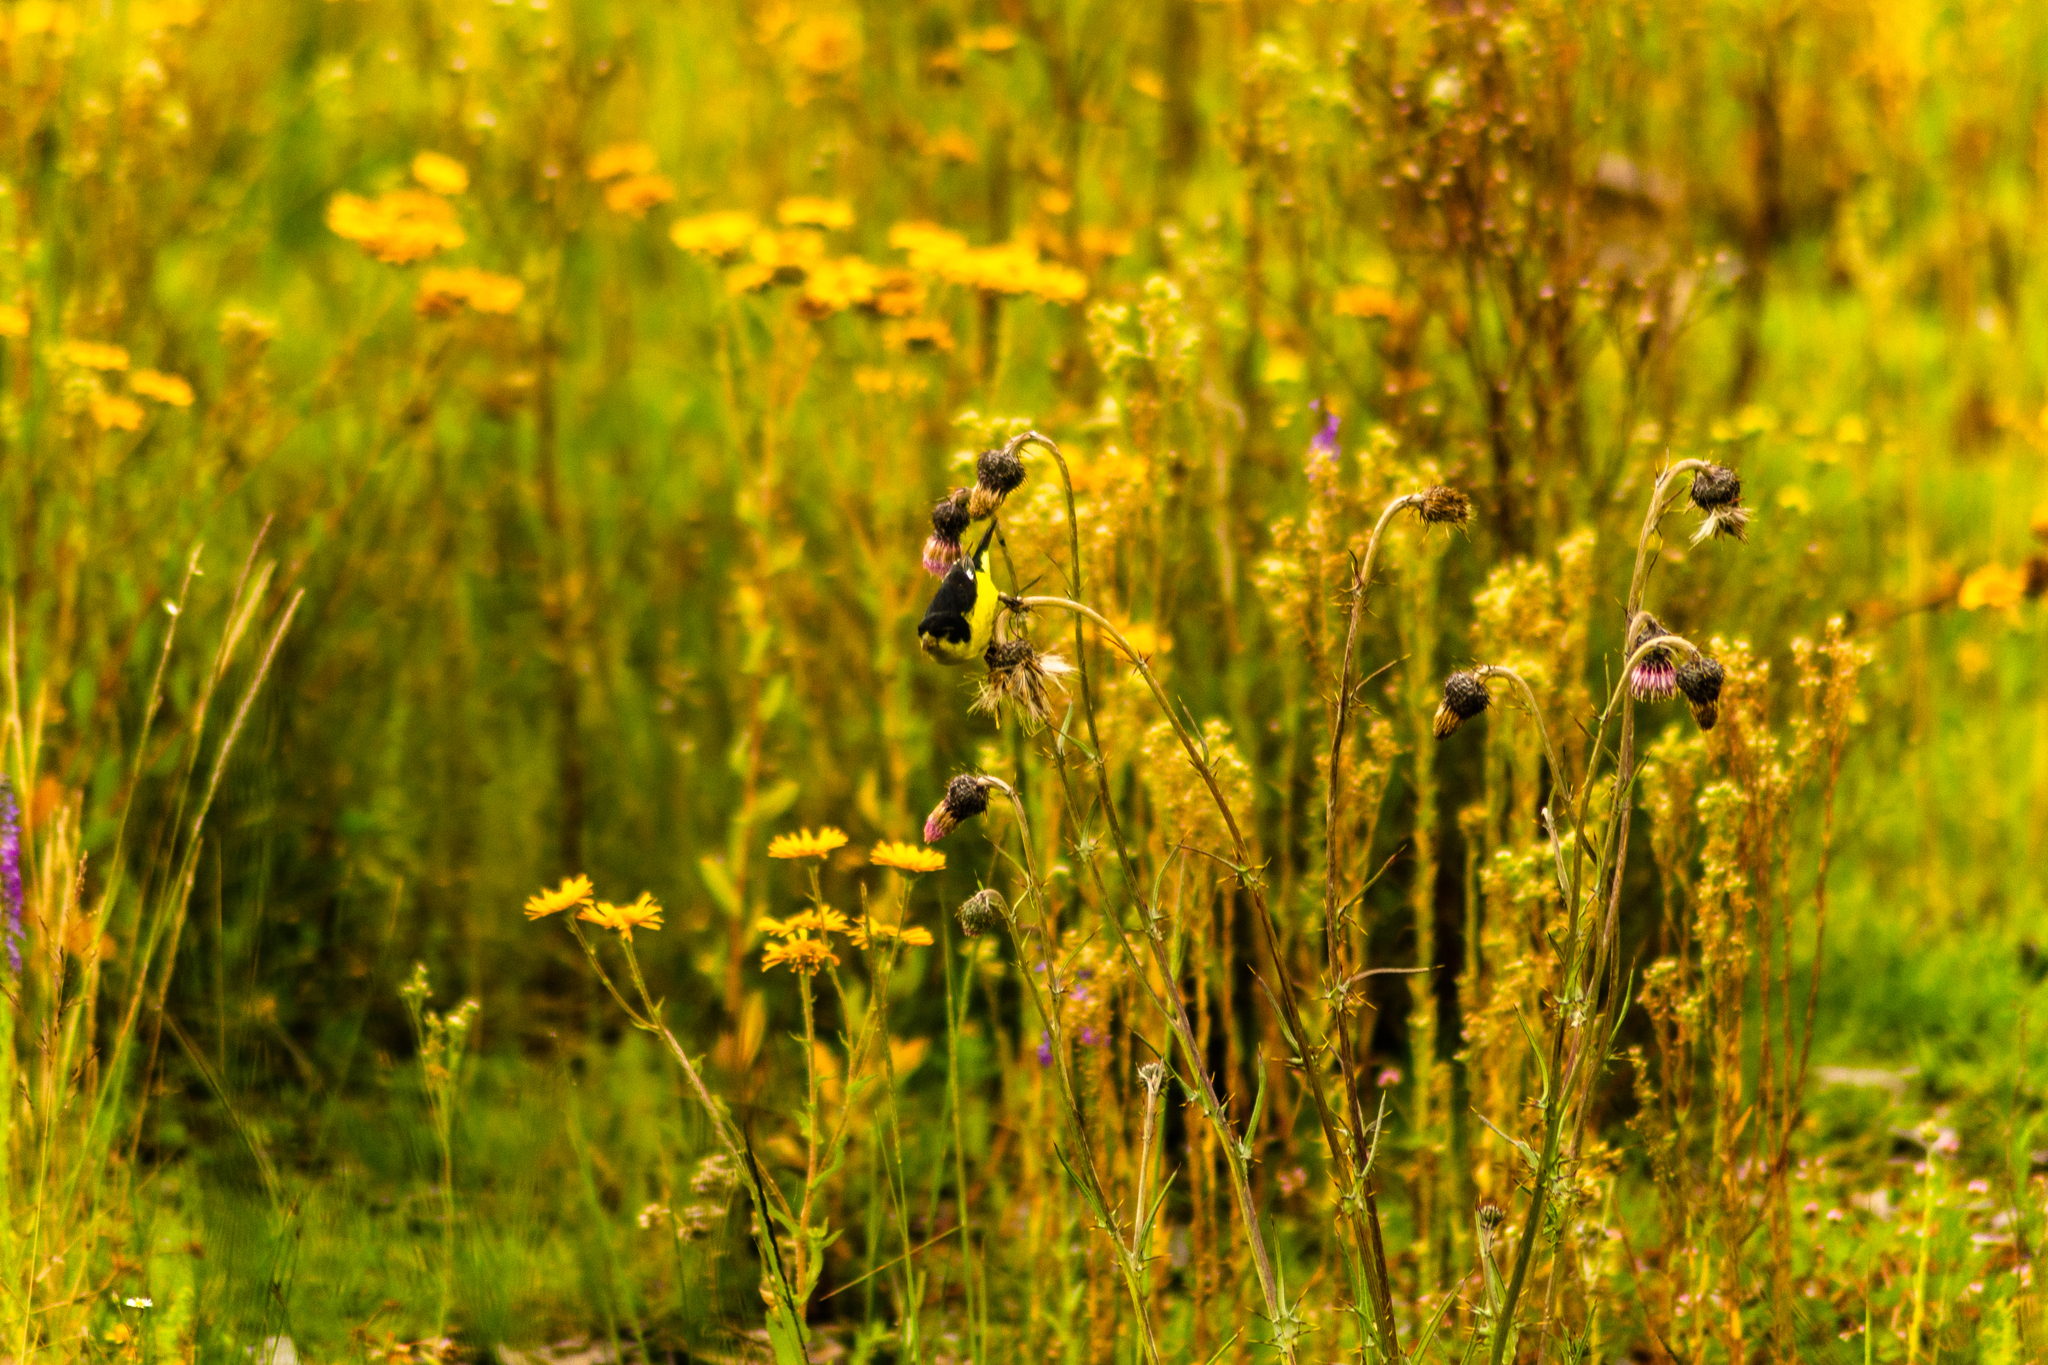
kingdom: Animalia
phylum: Chordata
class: Aves
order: Passeriformes
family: Fringillidae
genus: Spinus
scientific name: Spinus psaltria
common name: Lesser goldfinch
